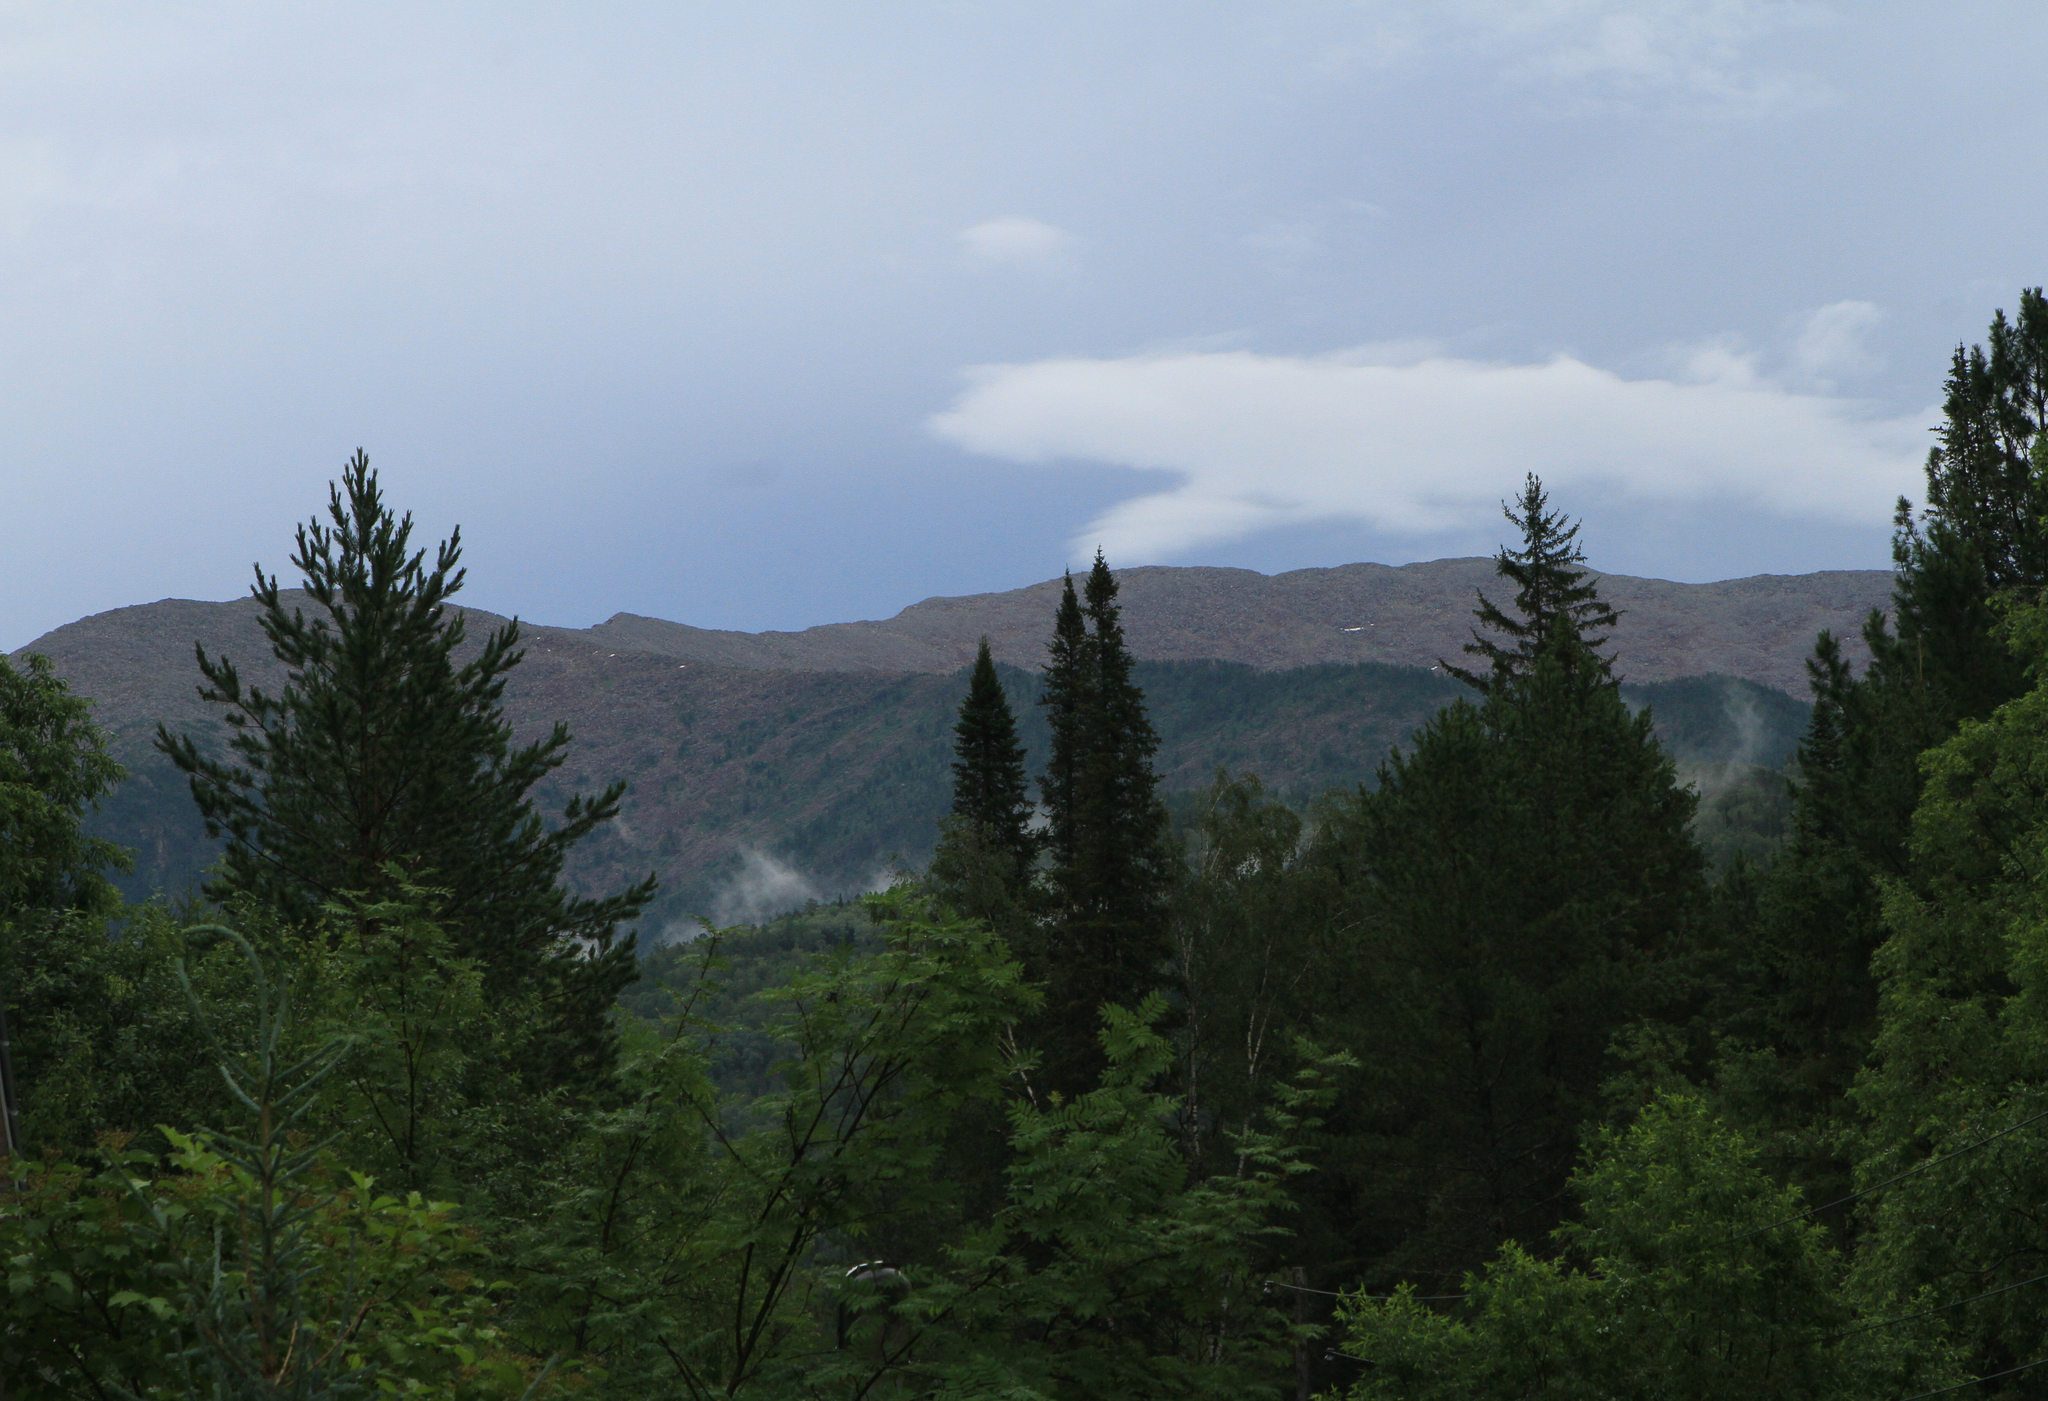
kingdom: Plantae
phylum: Tracheophyta
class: Pinopsida
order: Pinales
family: Pinaceae
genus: Pinus
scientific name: Pinus sylvestris
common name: Scots pine
